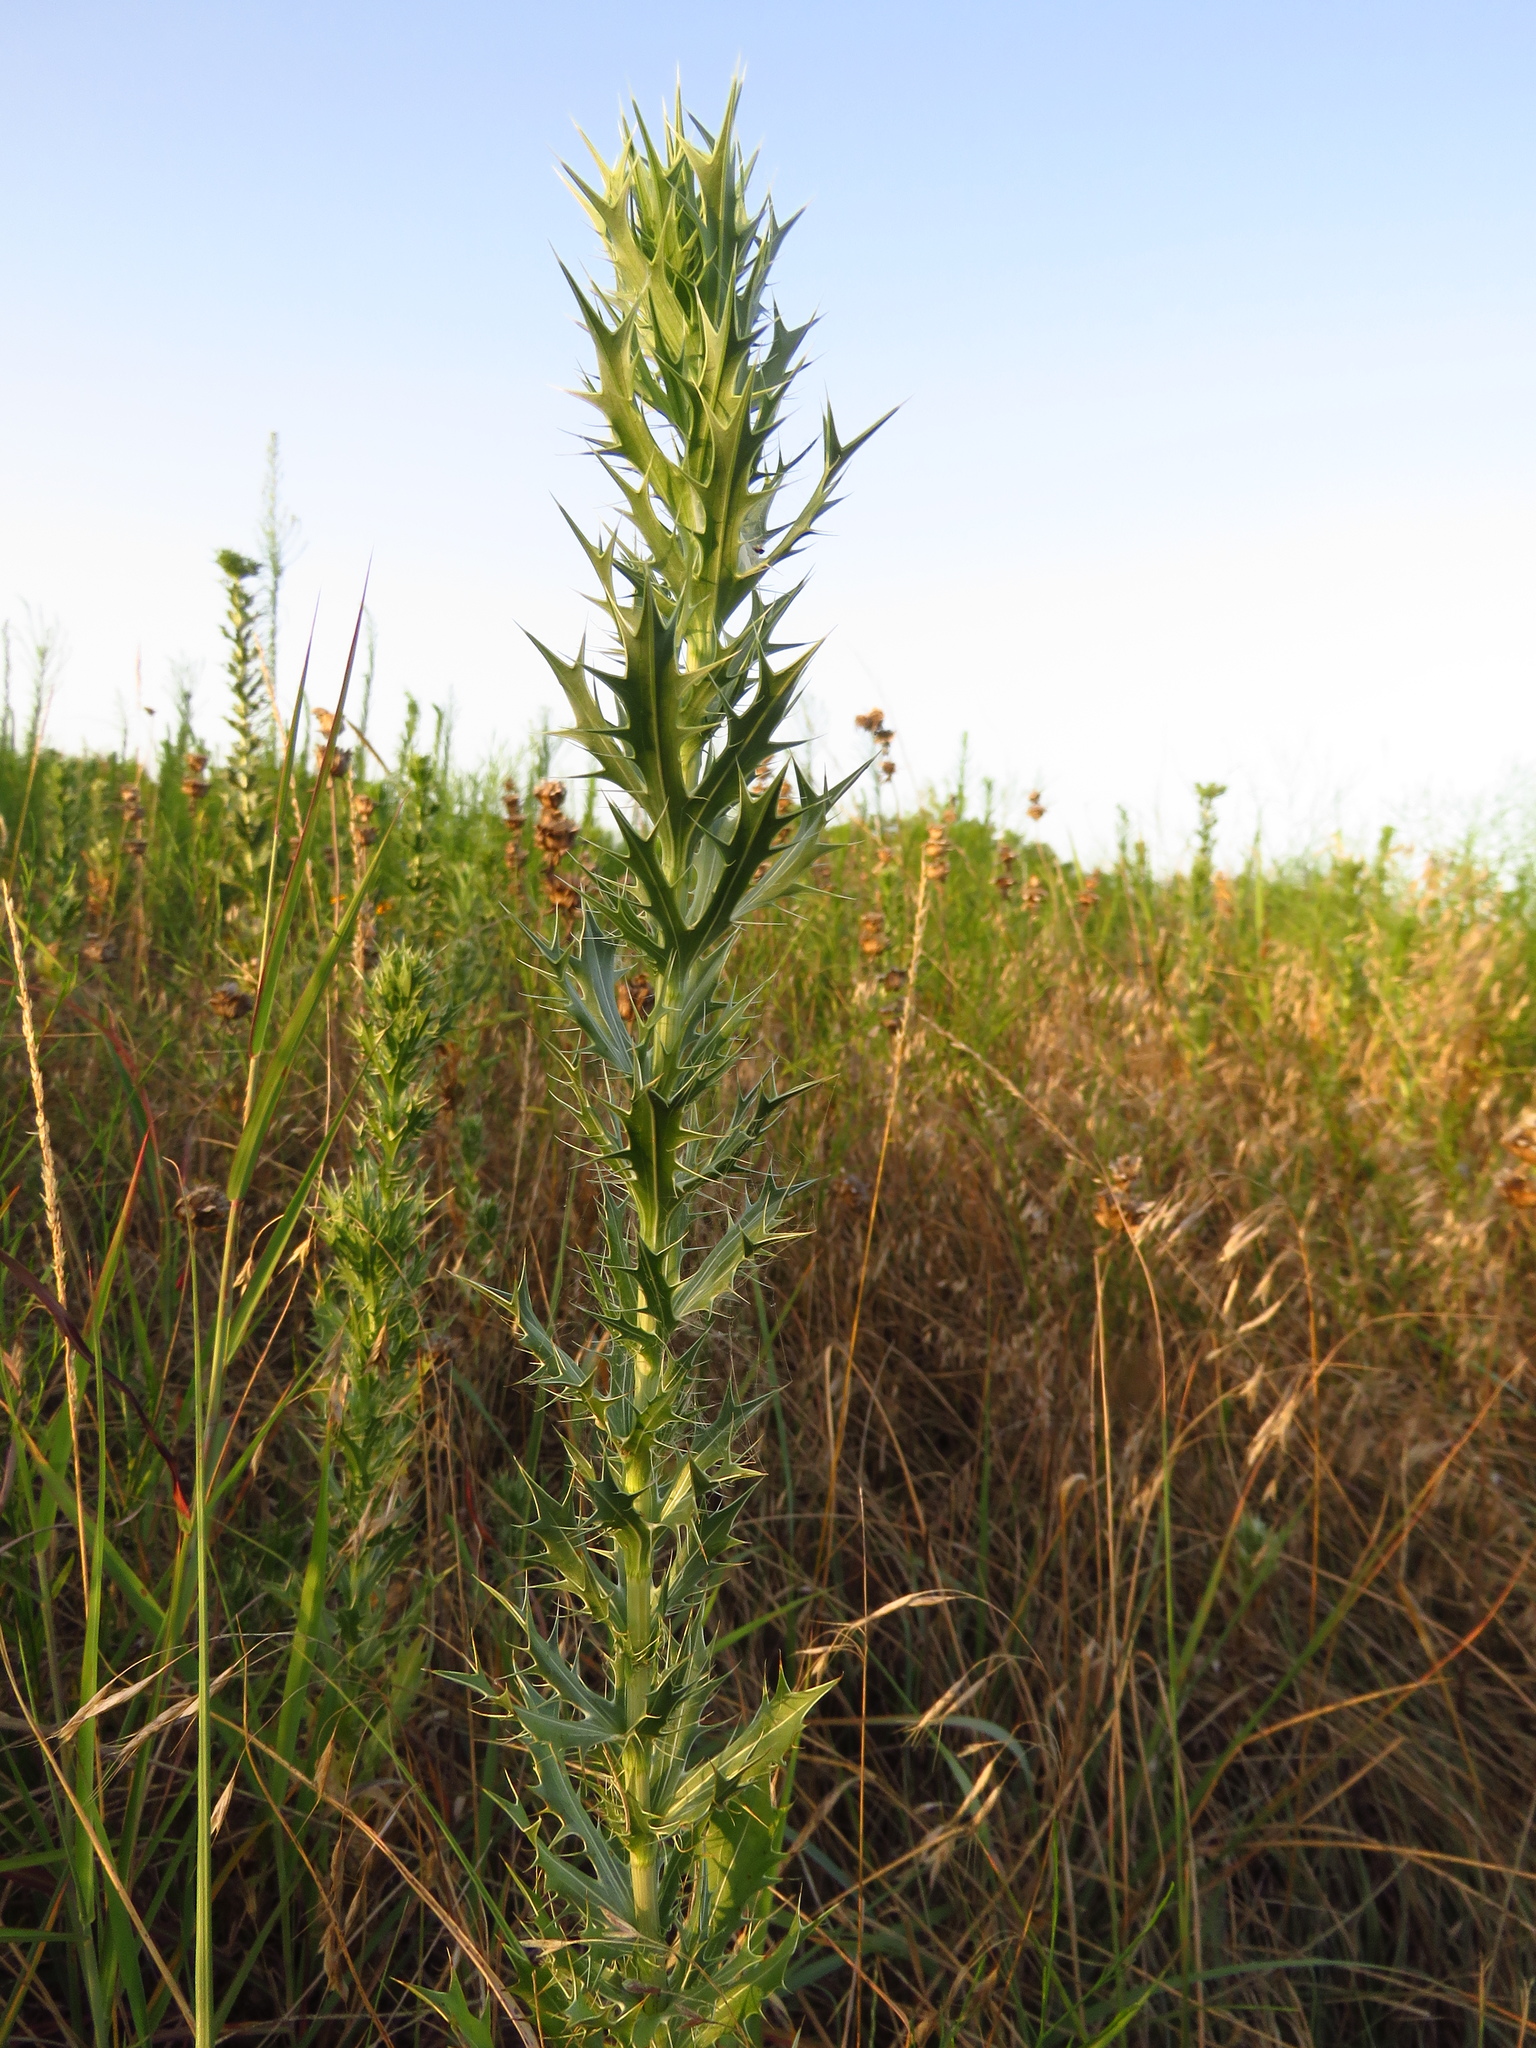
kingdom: Plantae
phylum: Tracheophyta
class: Magnoliopsida
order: Apiales
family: Apiaceae
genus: Eryngium
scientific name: Eryngium leavenworthii
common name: Leavenworth's eryngo
